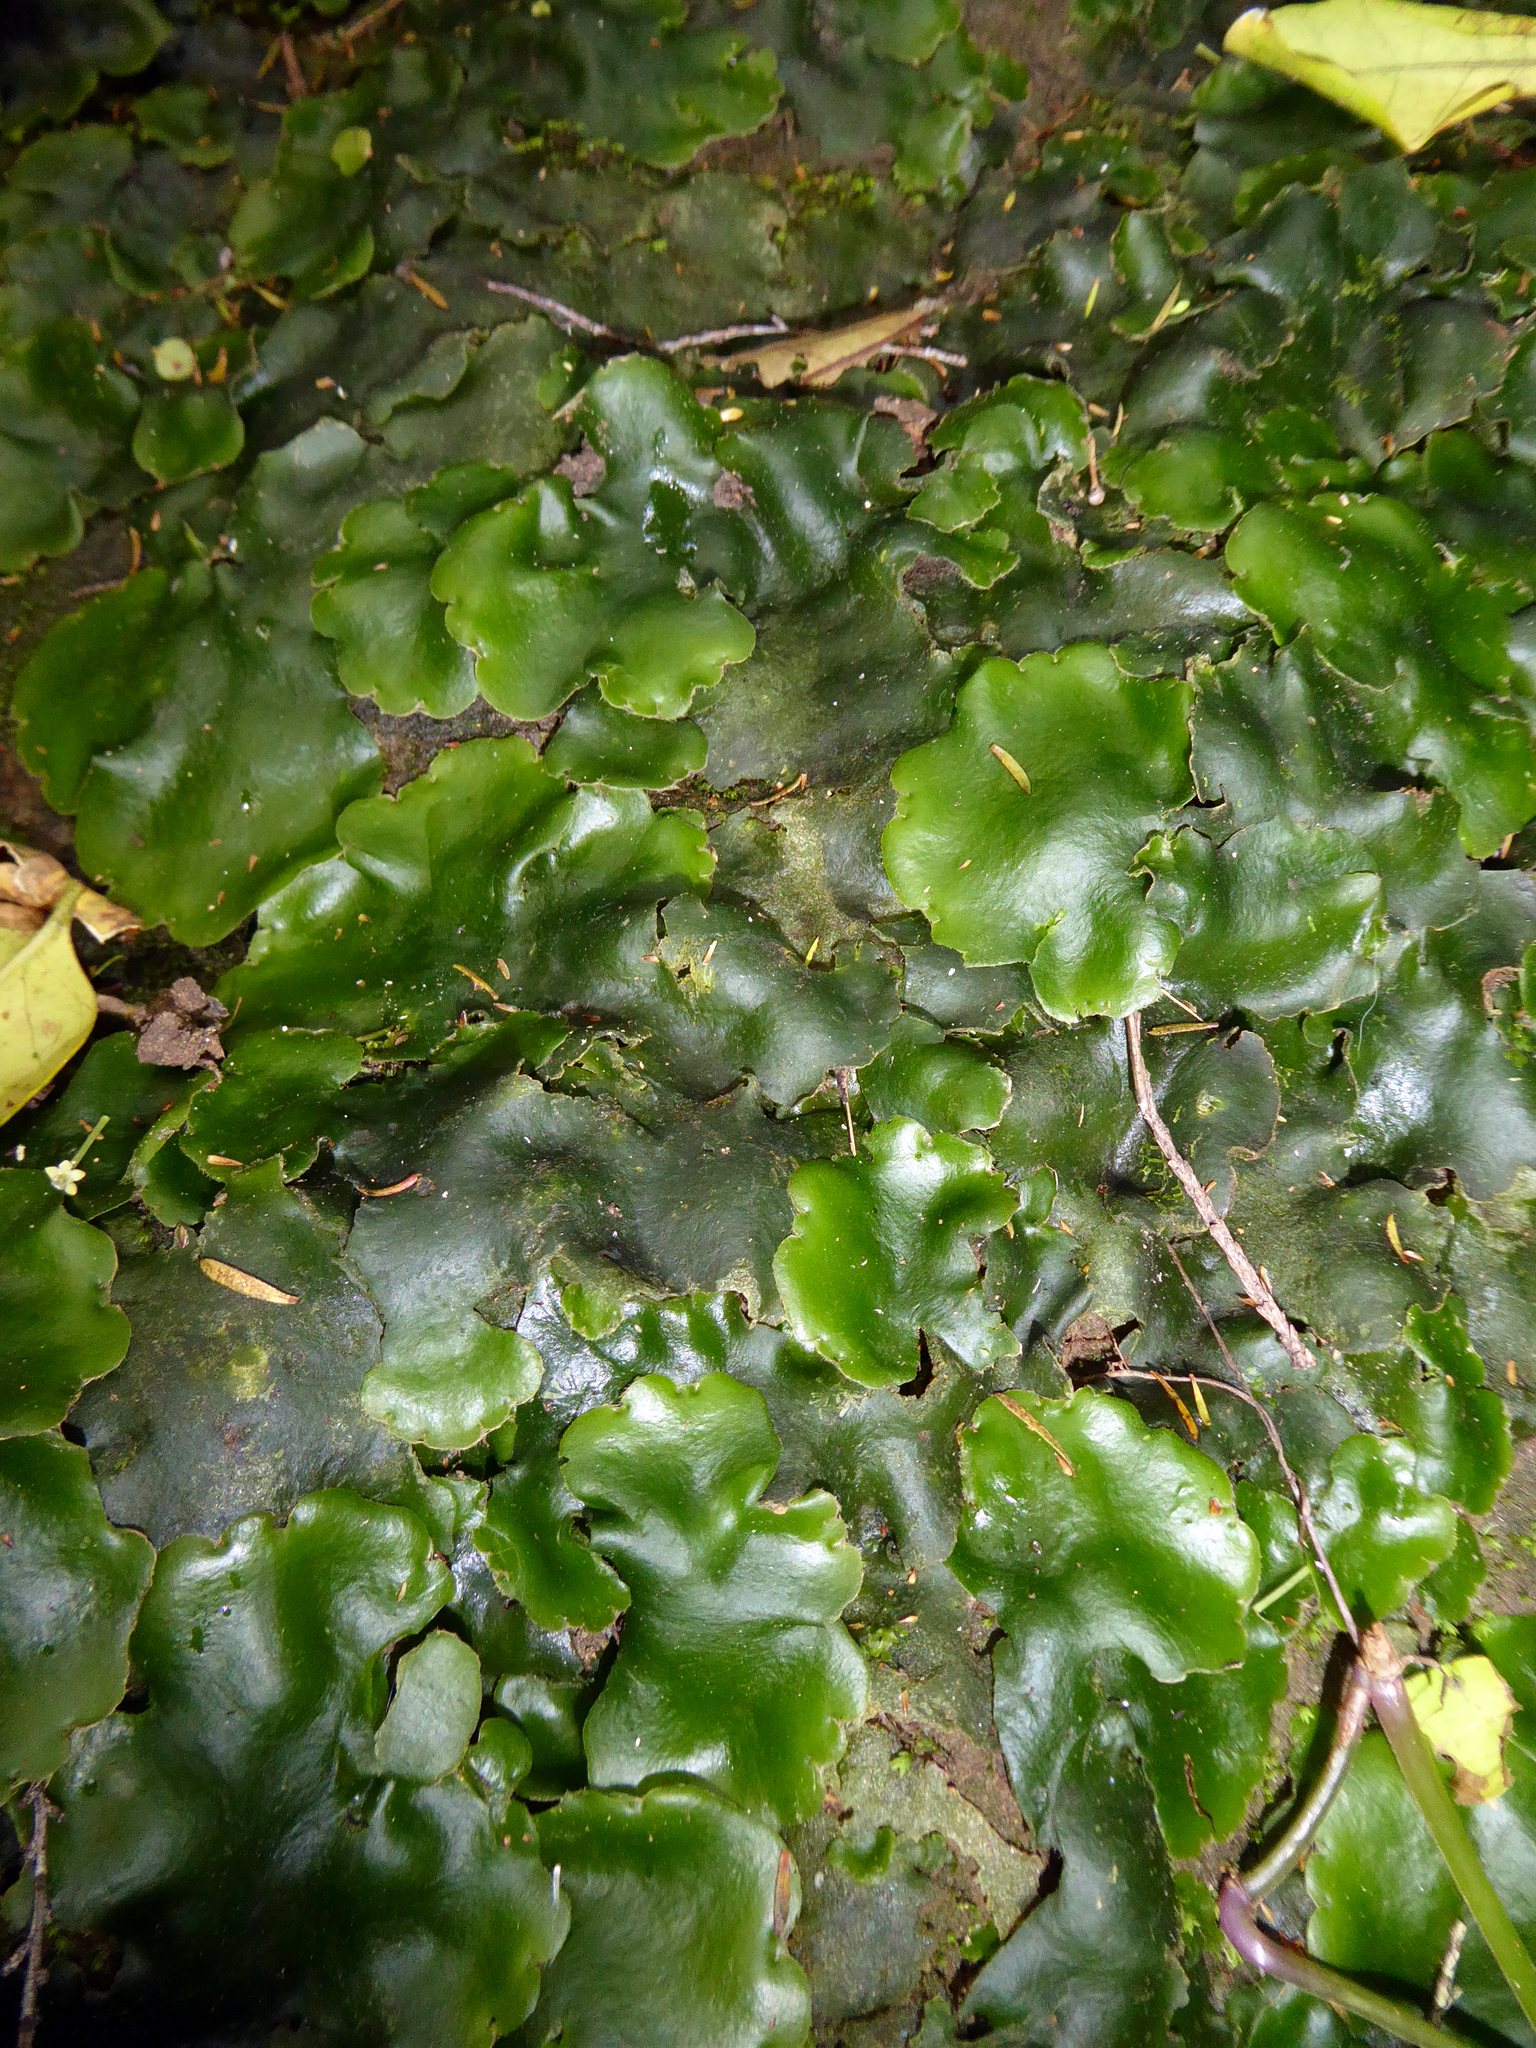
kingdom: Plantae
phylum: Marchantiophyta
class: Marchantiopsida
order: Marchantiales
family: Monocleaceae
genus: Monoclea
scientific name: Monoclea forsteri
